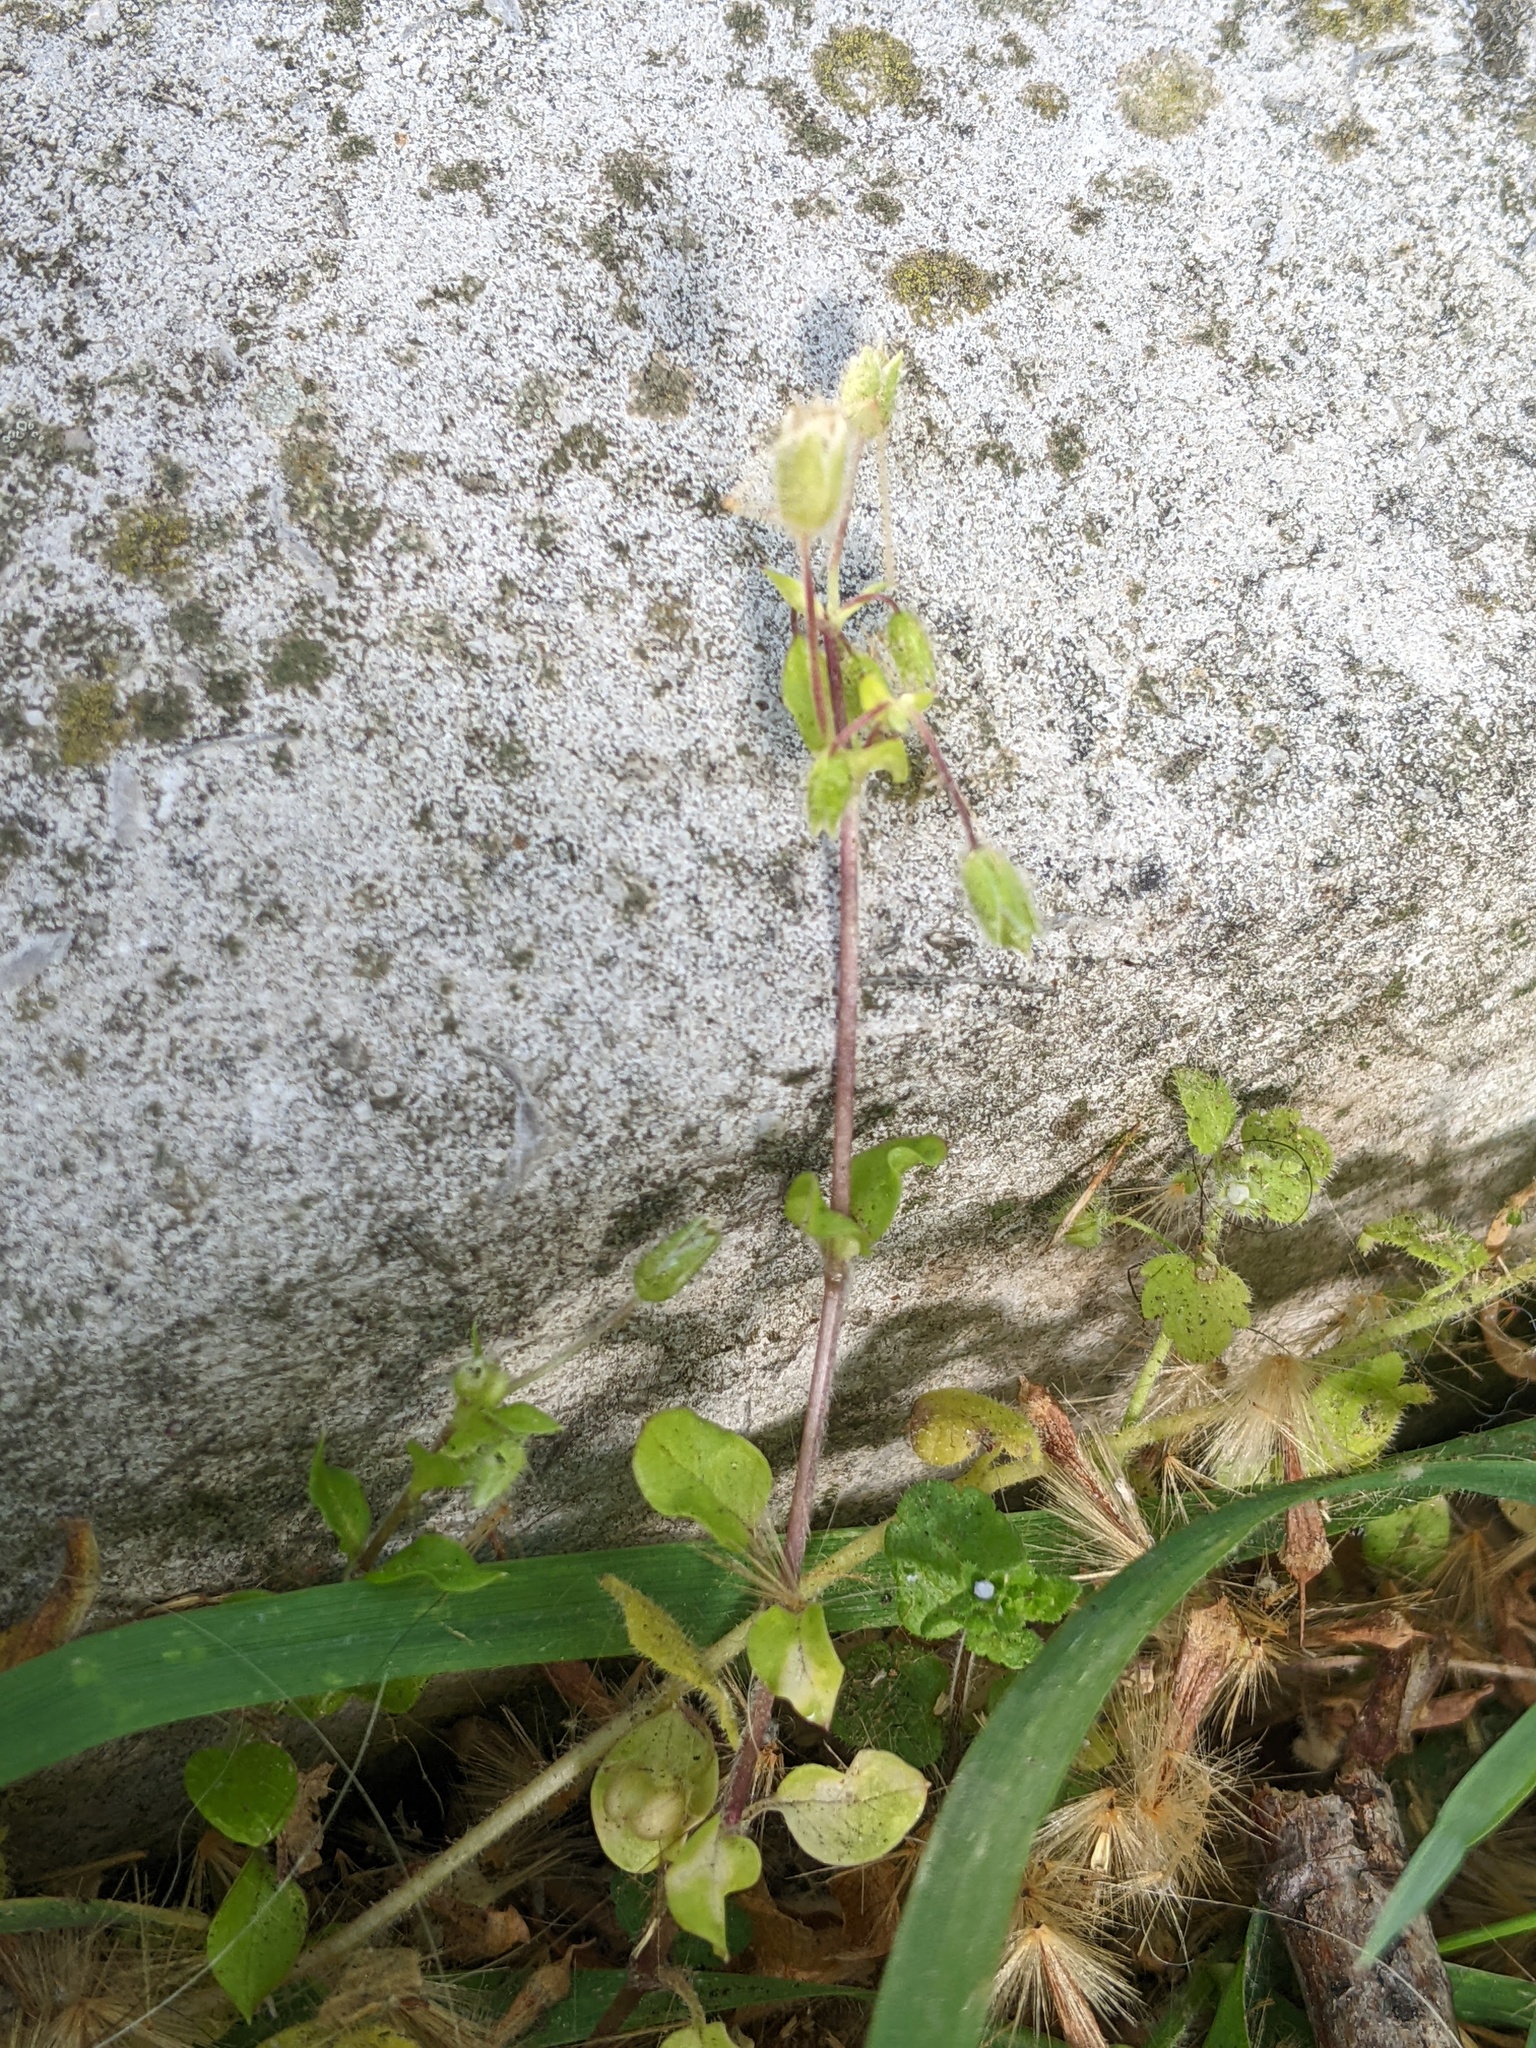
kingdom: Plantae
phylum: Tracheophyta
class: Magnoliopsida
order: Caryophyllales
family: Caryophyllaceae
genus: Cerastium
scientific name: Cerastium glomeratum
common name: Sticky chickweed
